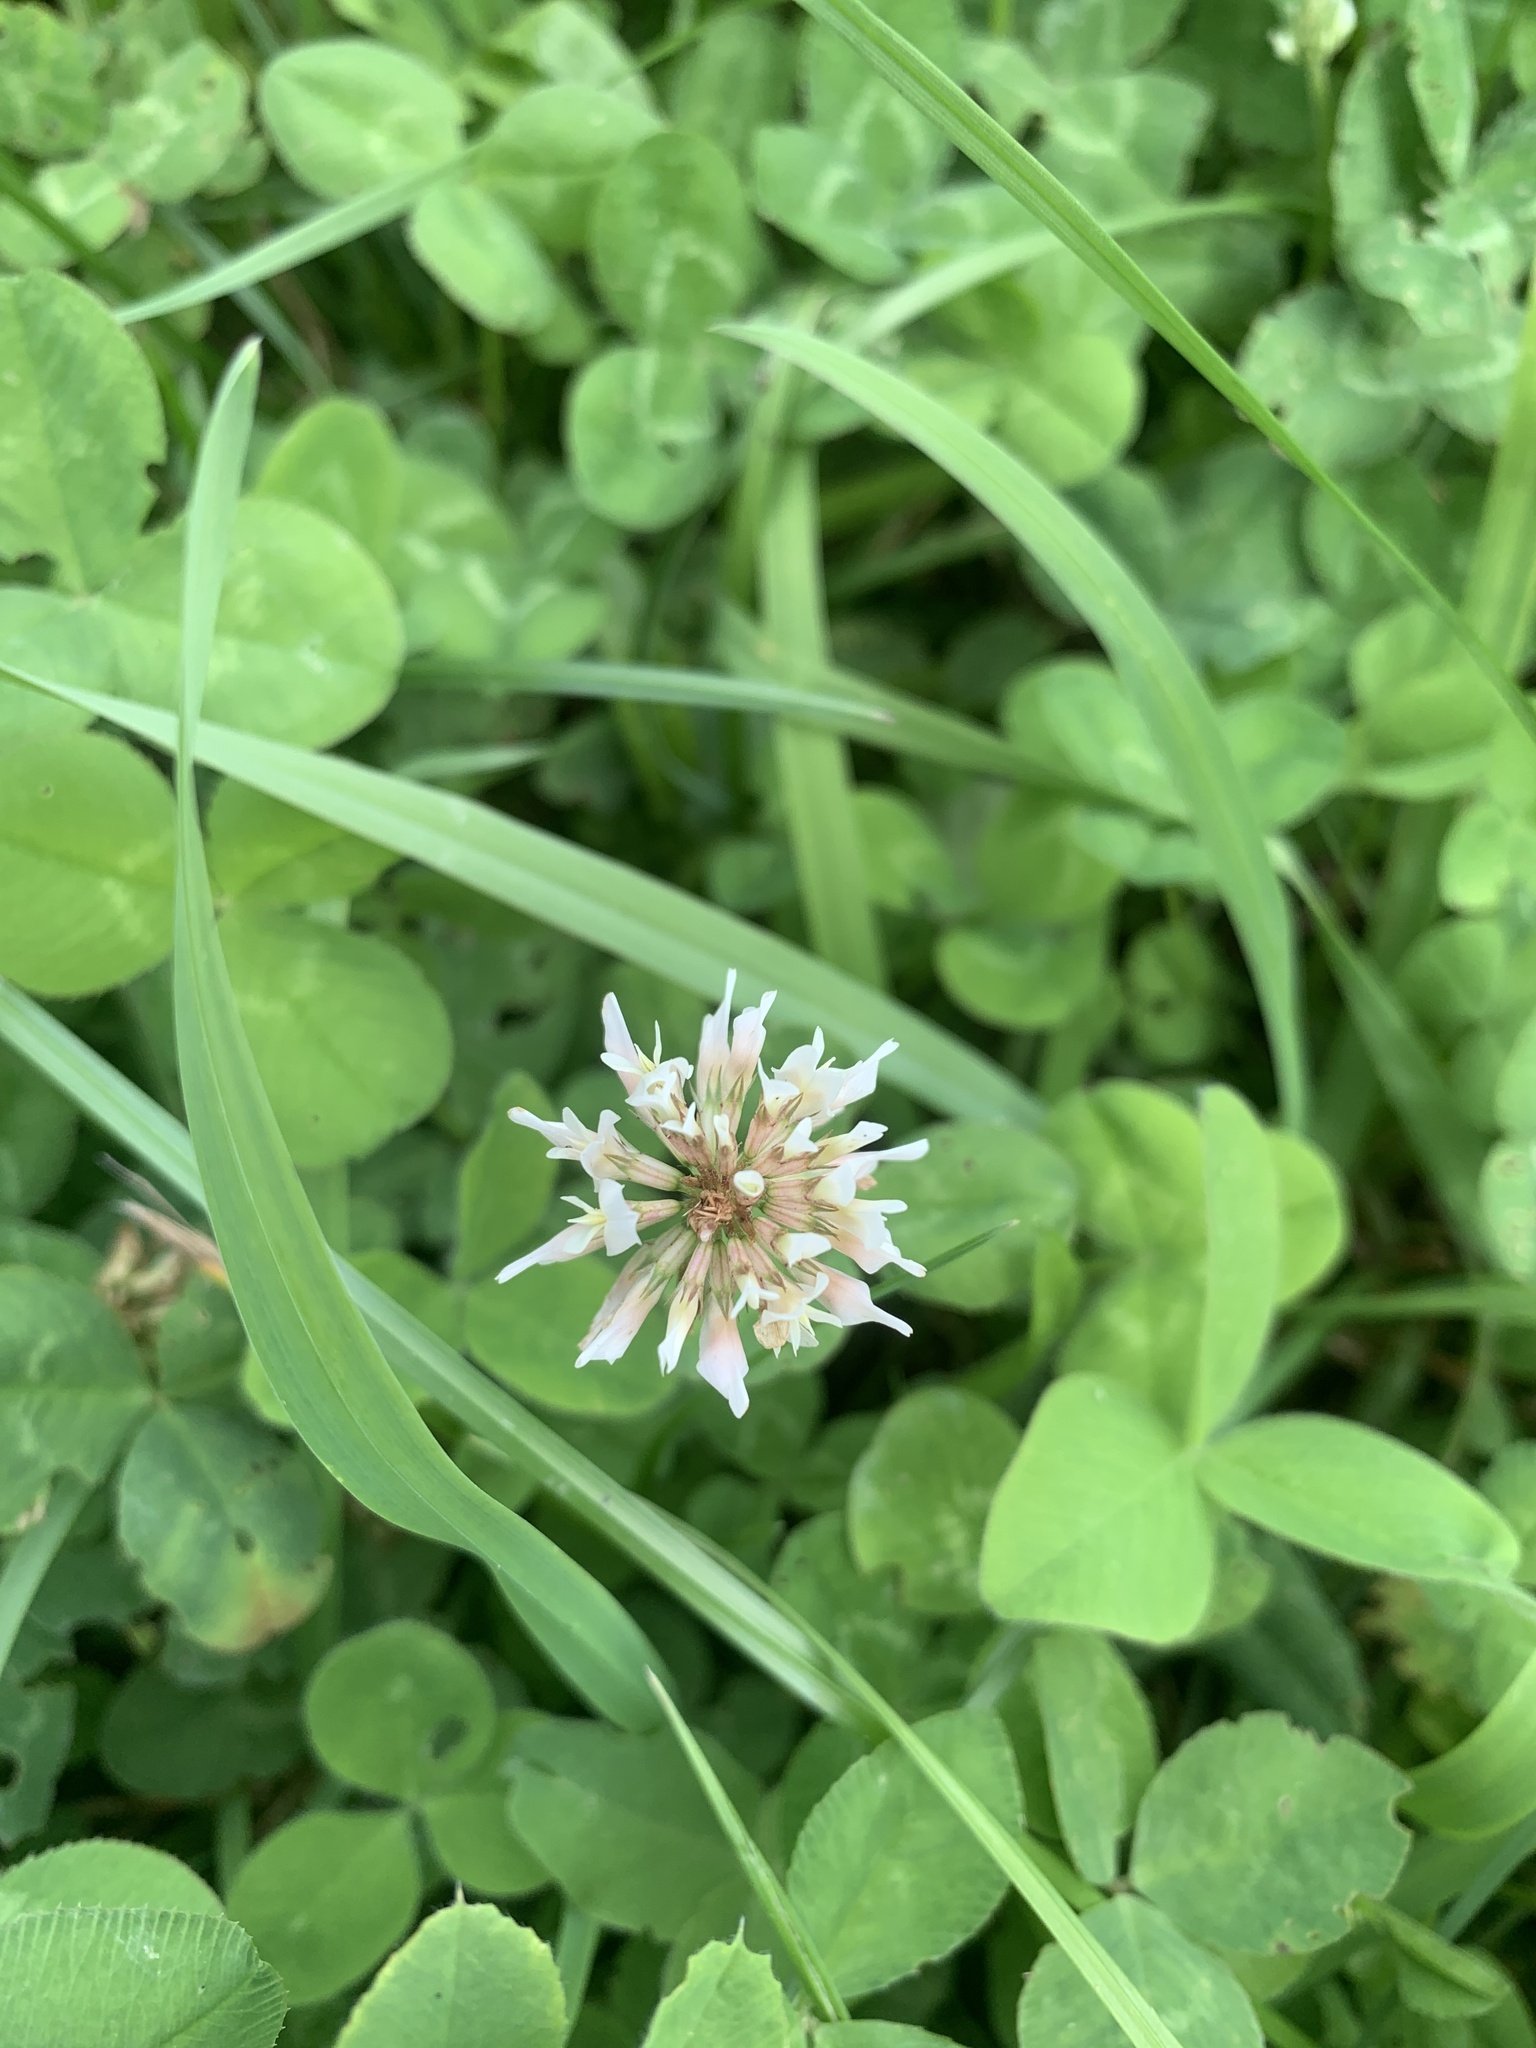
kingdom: Plantae
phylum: Tracheophyta
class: Magnoliopsida
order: Fabales
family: Fabaceae
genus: Trifolium
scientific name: Trifolium repens
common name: White clover
